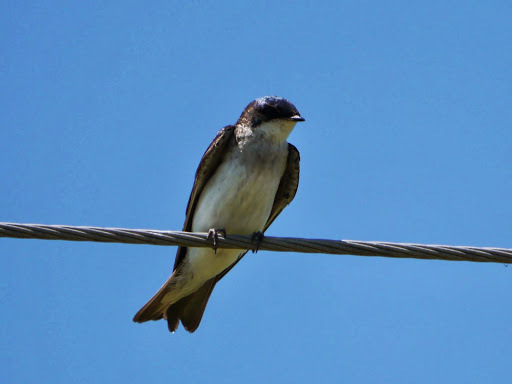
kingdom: Animalia
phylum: Chordata
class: Aves
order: Passeriformes
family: Hirundinidae
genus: Tachycineta
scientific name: Tachycineta bicolor
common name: Tree swallow
